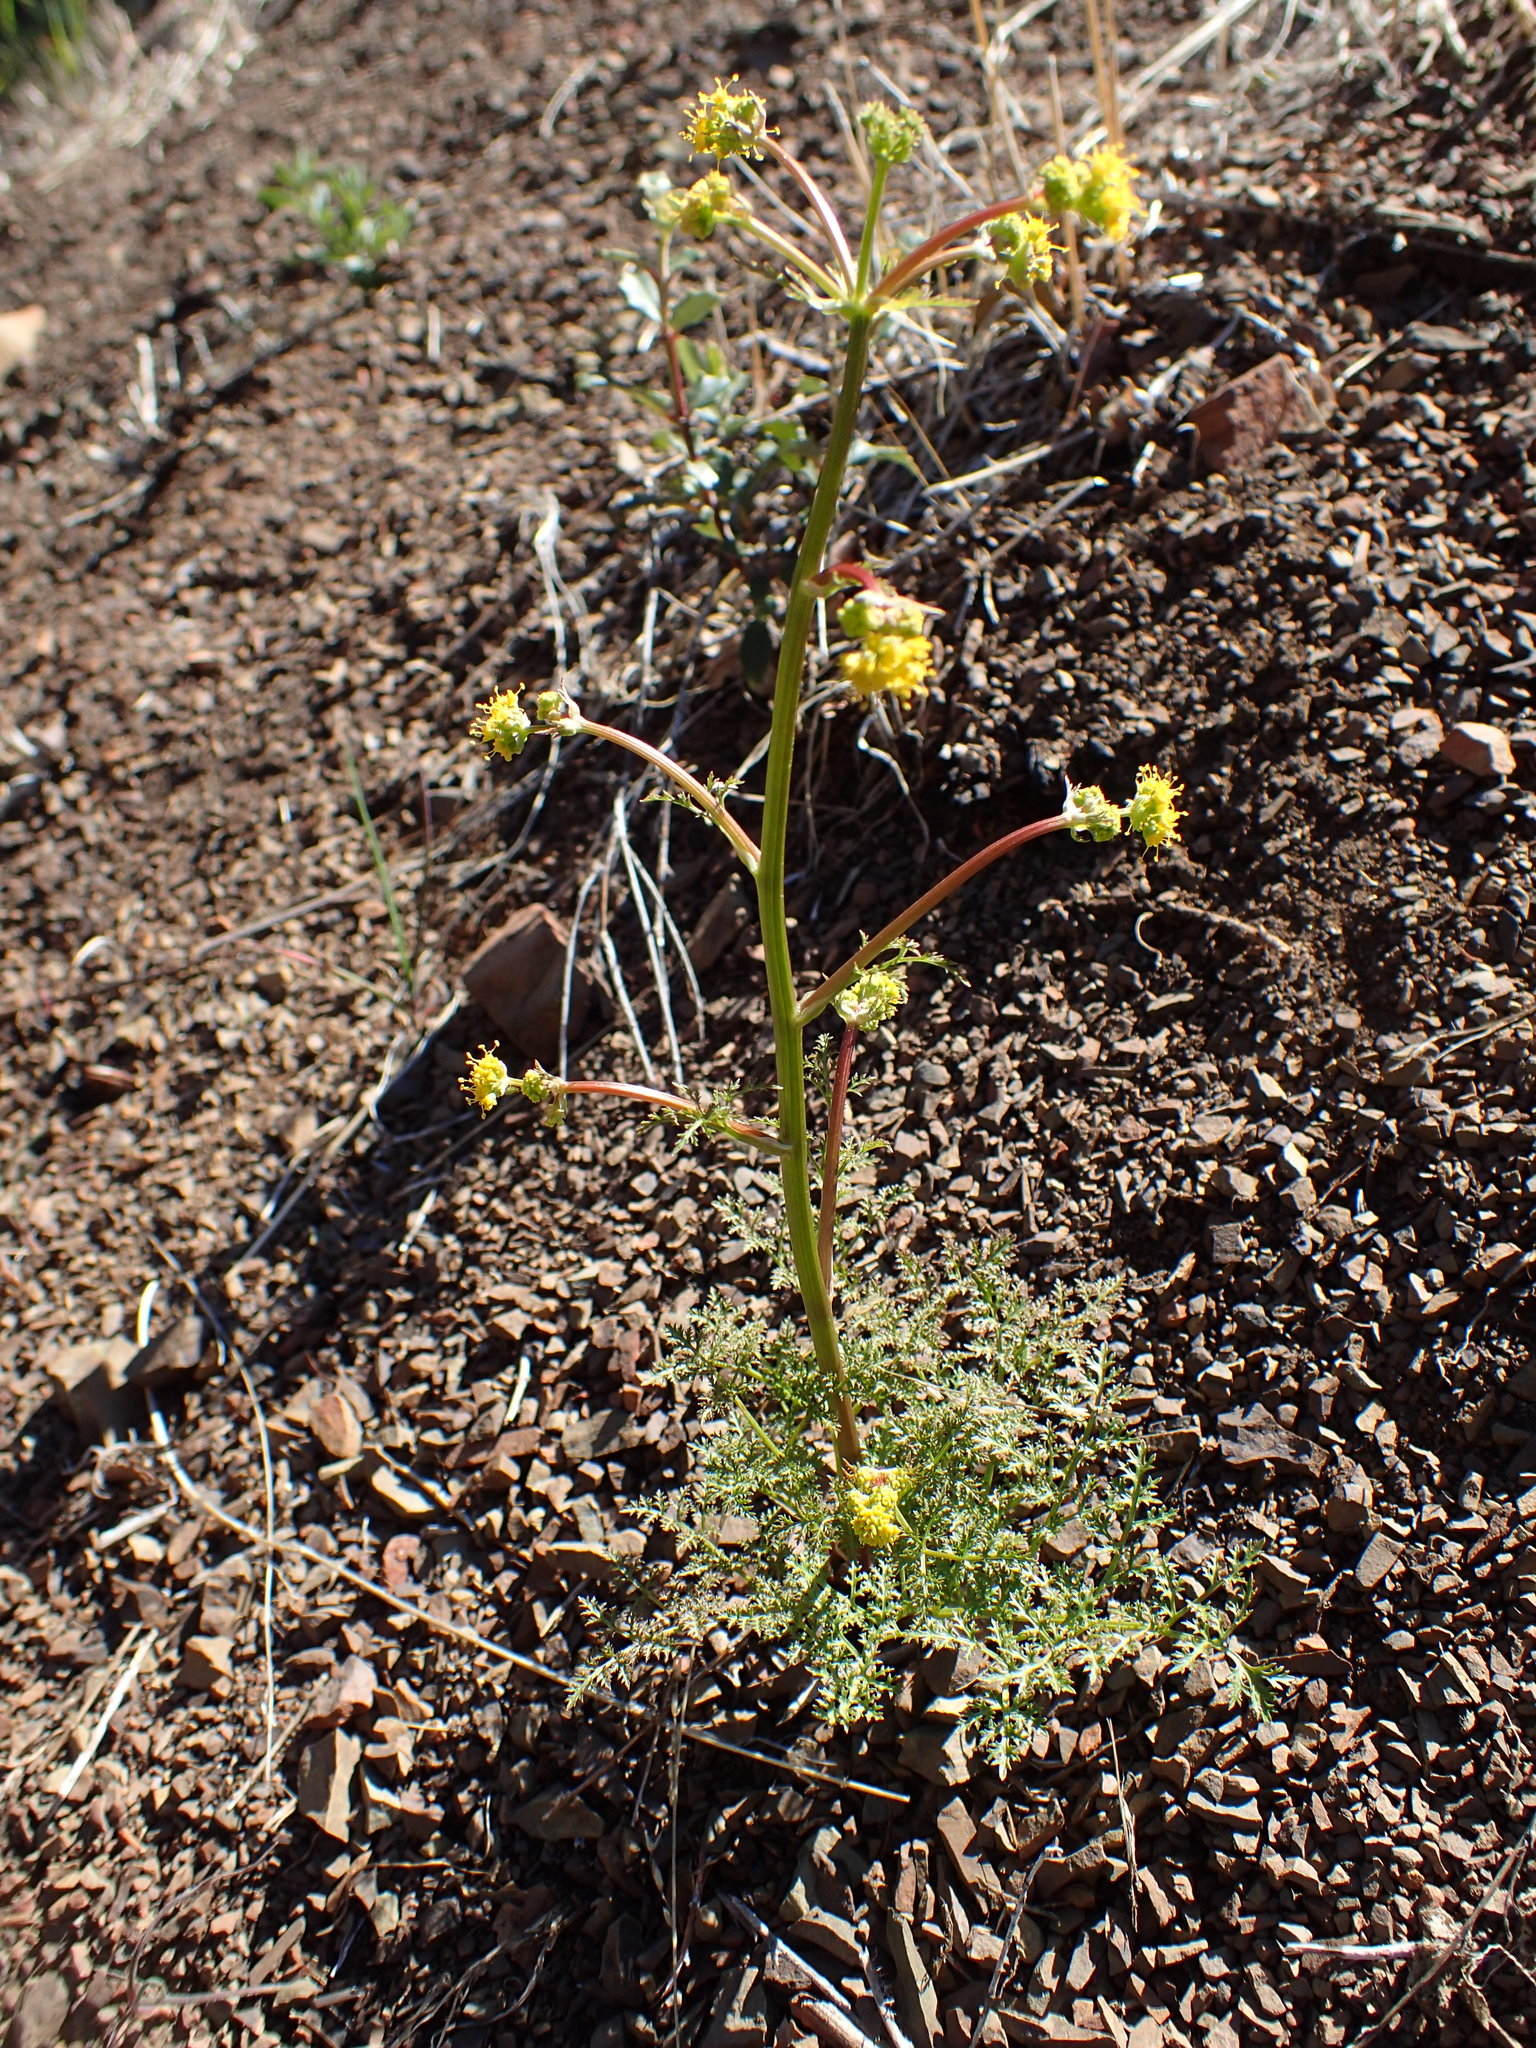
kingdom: Plantae
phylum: Tracheophyta
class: Magnoliopsida
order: Apiales
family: Apiaceae
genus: Sanicula
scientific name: Sanicula tuberosa
